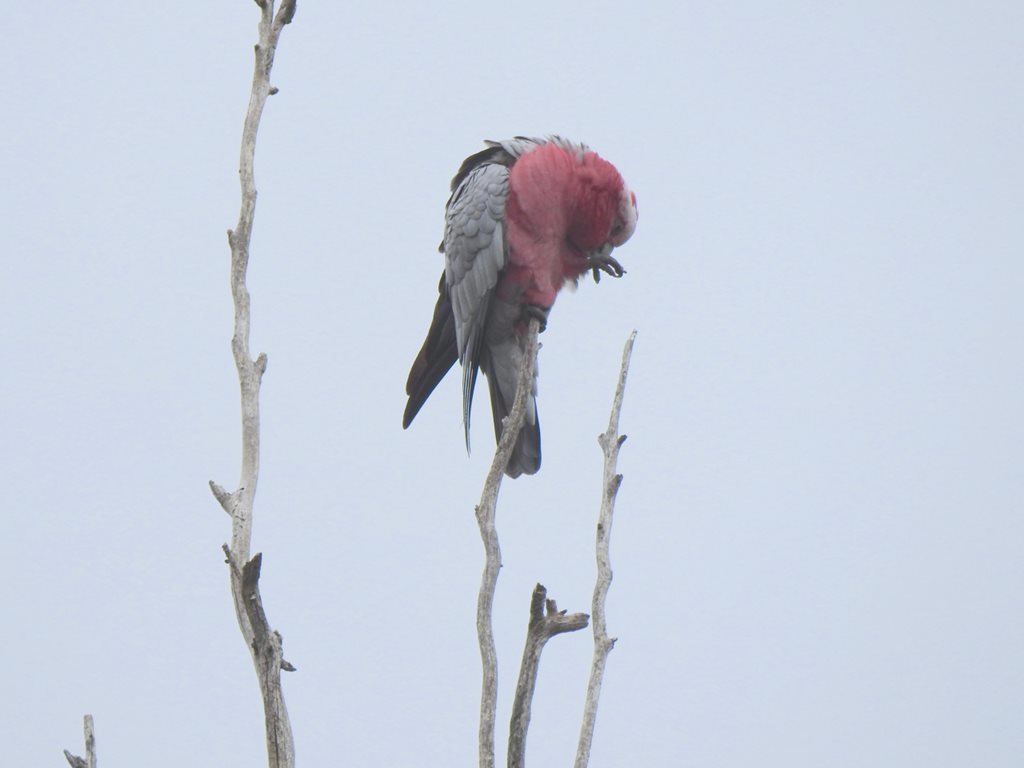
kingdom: Animalia
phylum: Chordata
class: Aves
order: Psittaciformes
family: Psittacidae
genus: Eolophus
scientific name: Eolophus roseicapilla
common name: Galah
